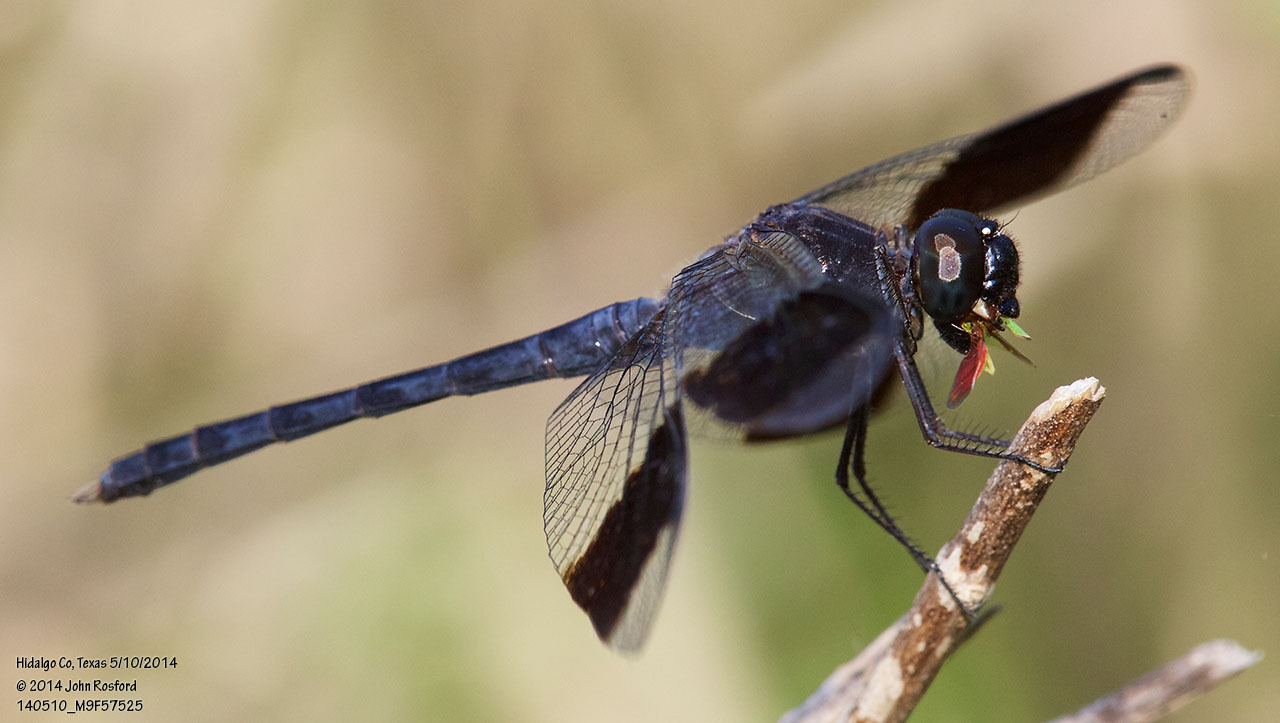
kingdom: Animalia
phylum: Arthropoda
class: Insecta
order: Odonata
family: Libellulidae
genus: Erythrodiplax
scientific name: Erythrodiplax umbrata
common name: Band-winged dragonlet
